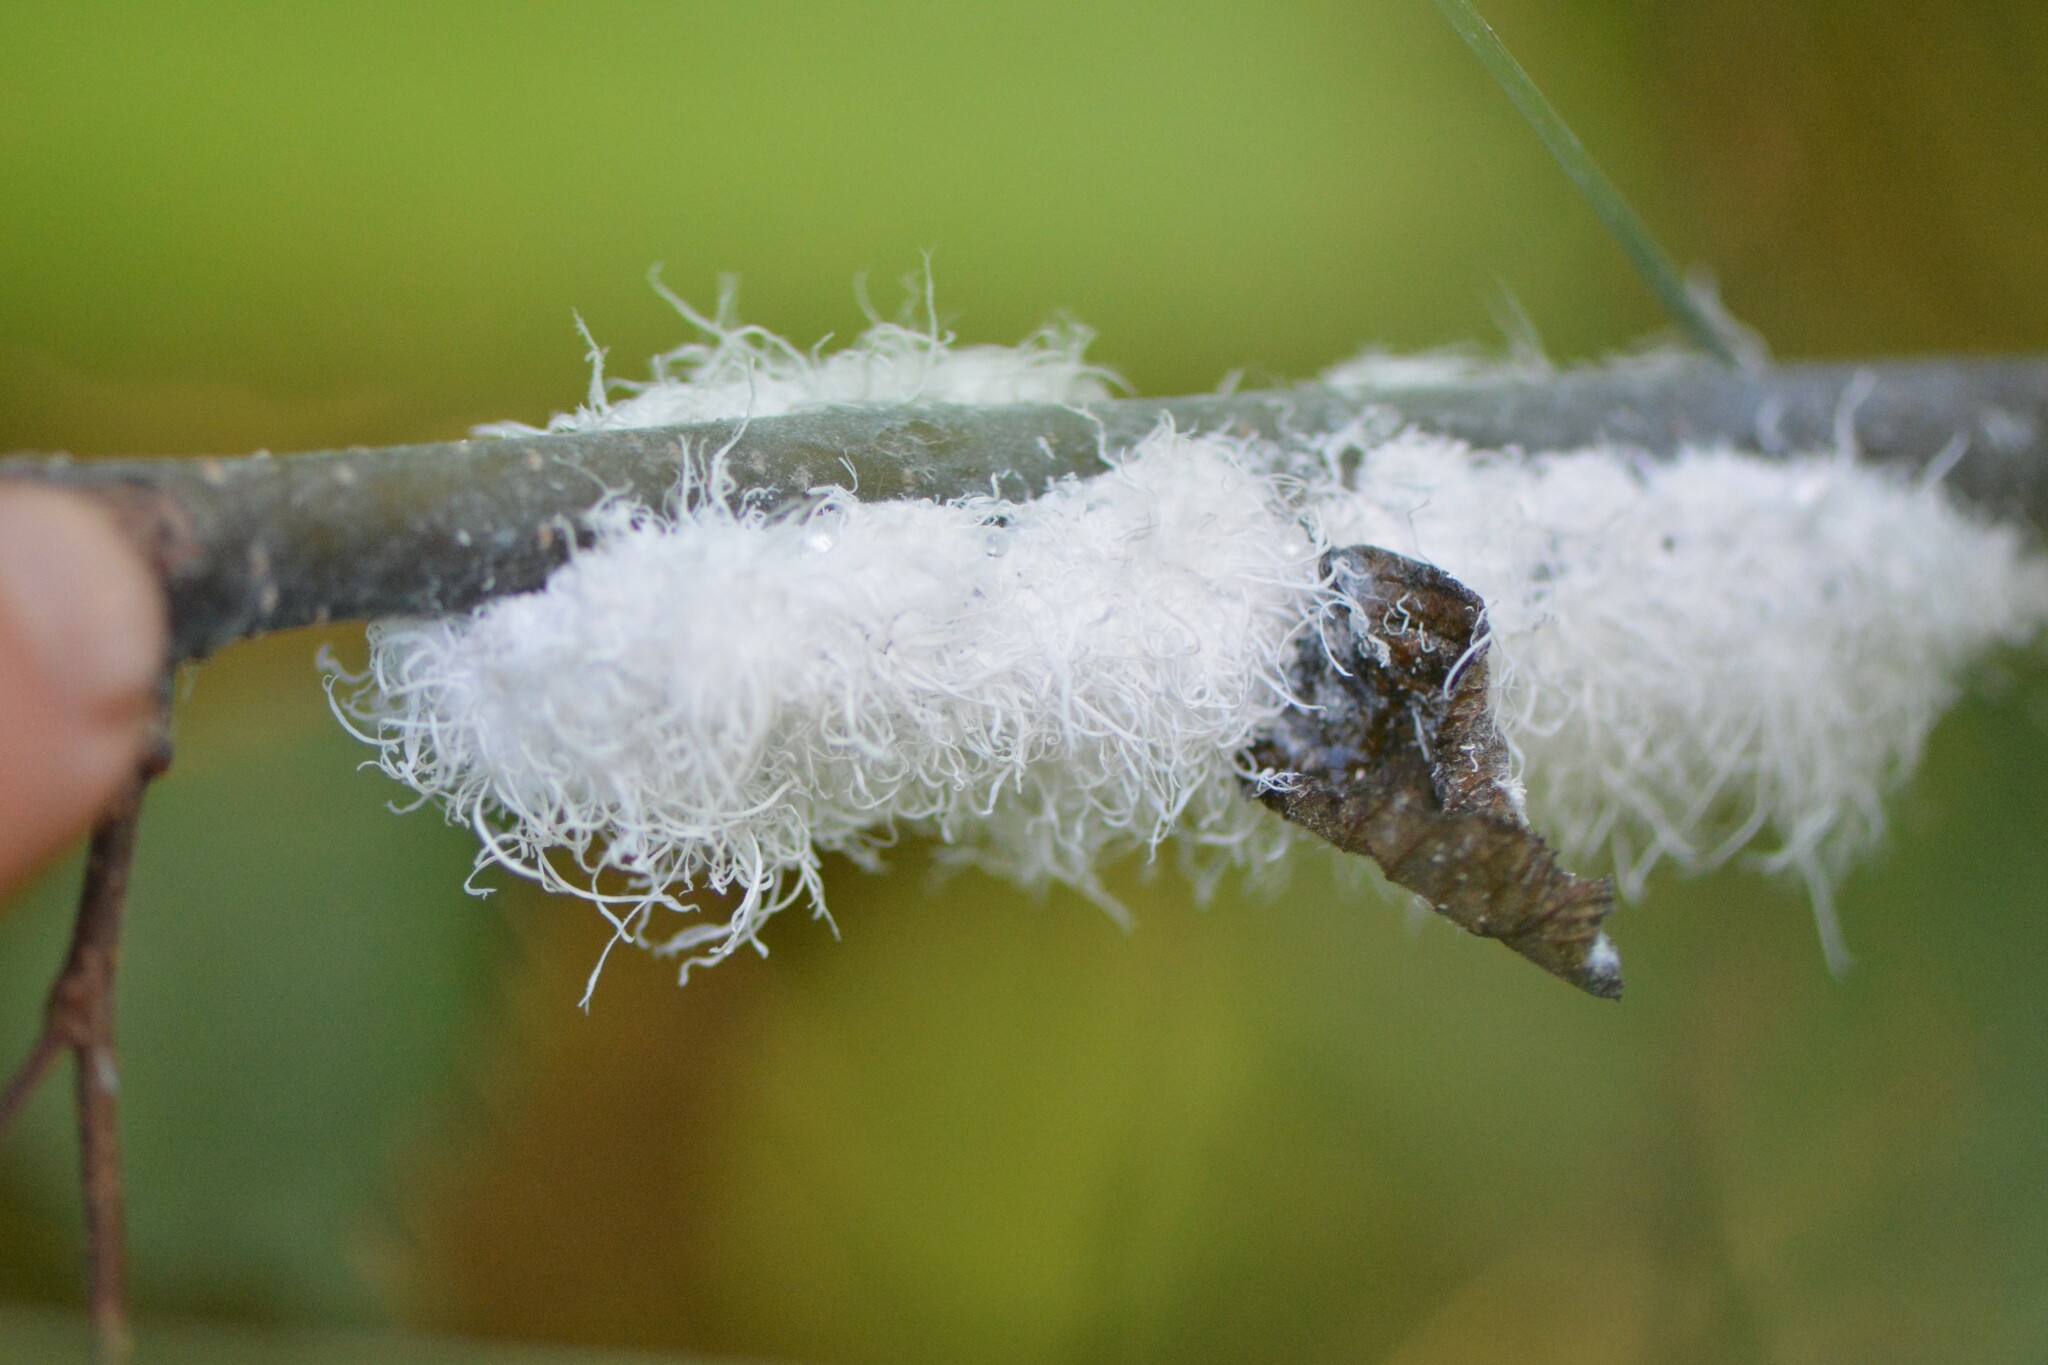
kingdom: Animalia
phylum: Arthropoda
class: Insecta
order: Hemiptera
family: Aphididae
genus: Prociphilus
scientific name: Prociphilus tessellatus
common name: Woolly alder aphid
